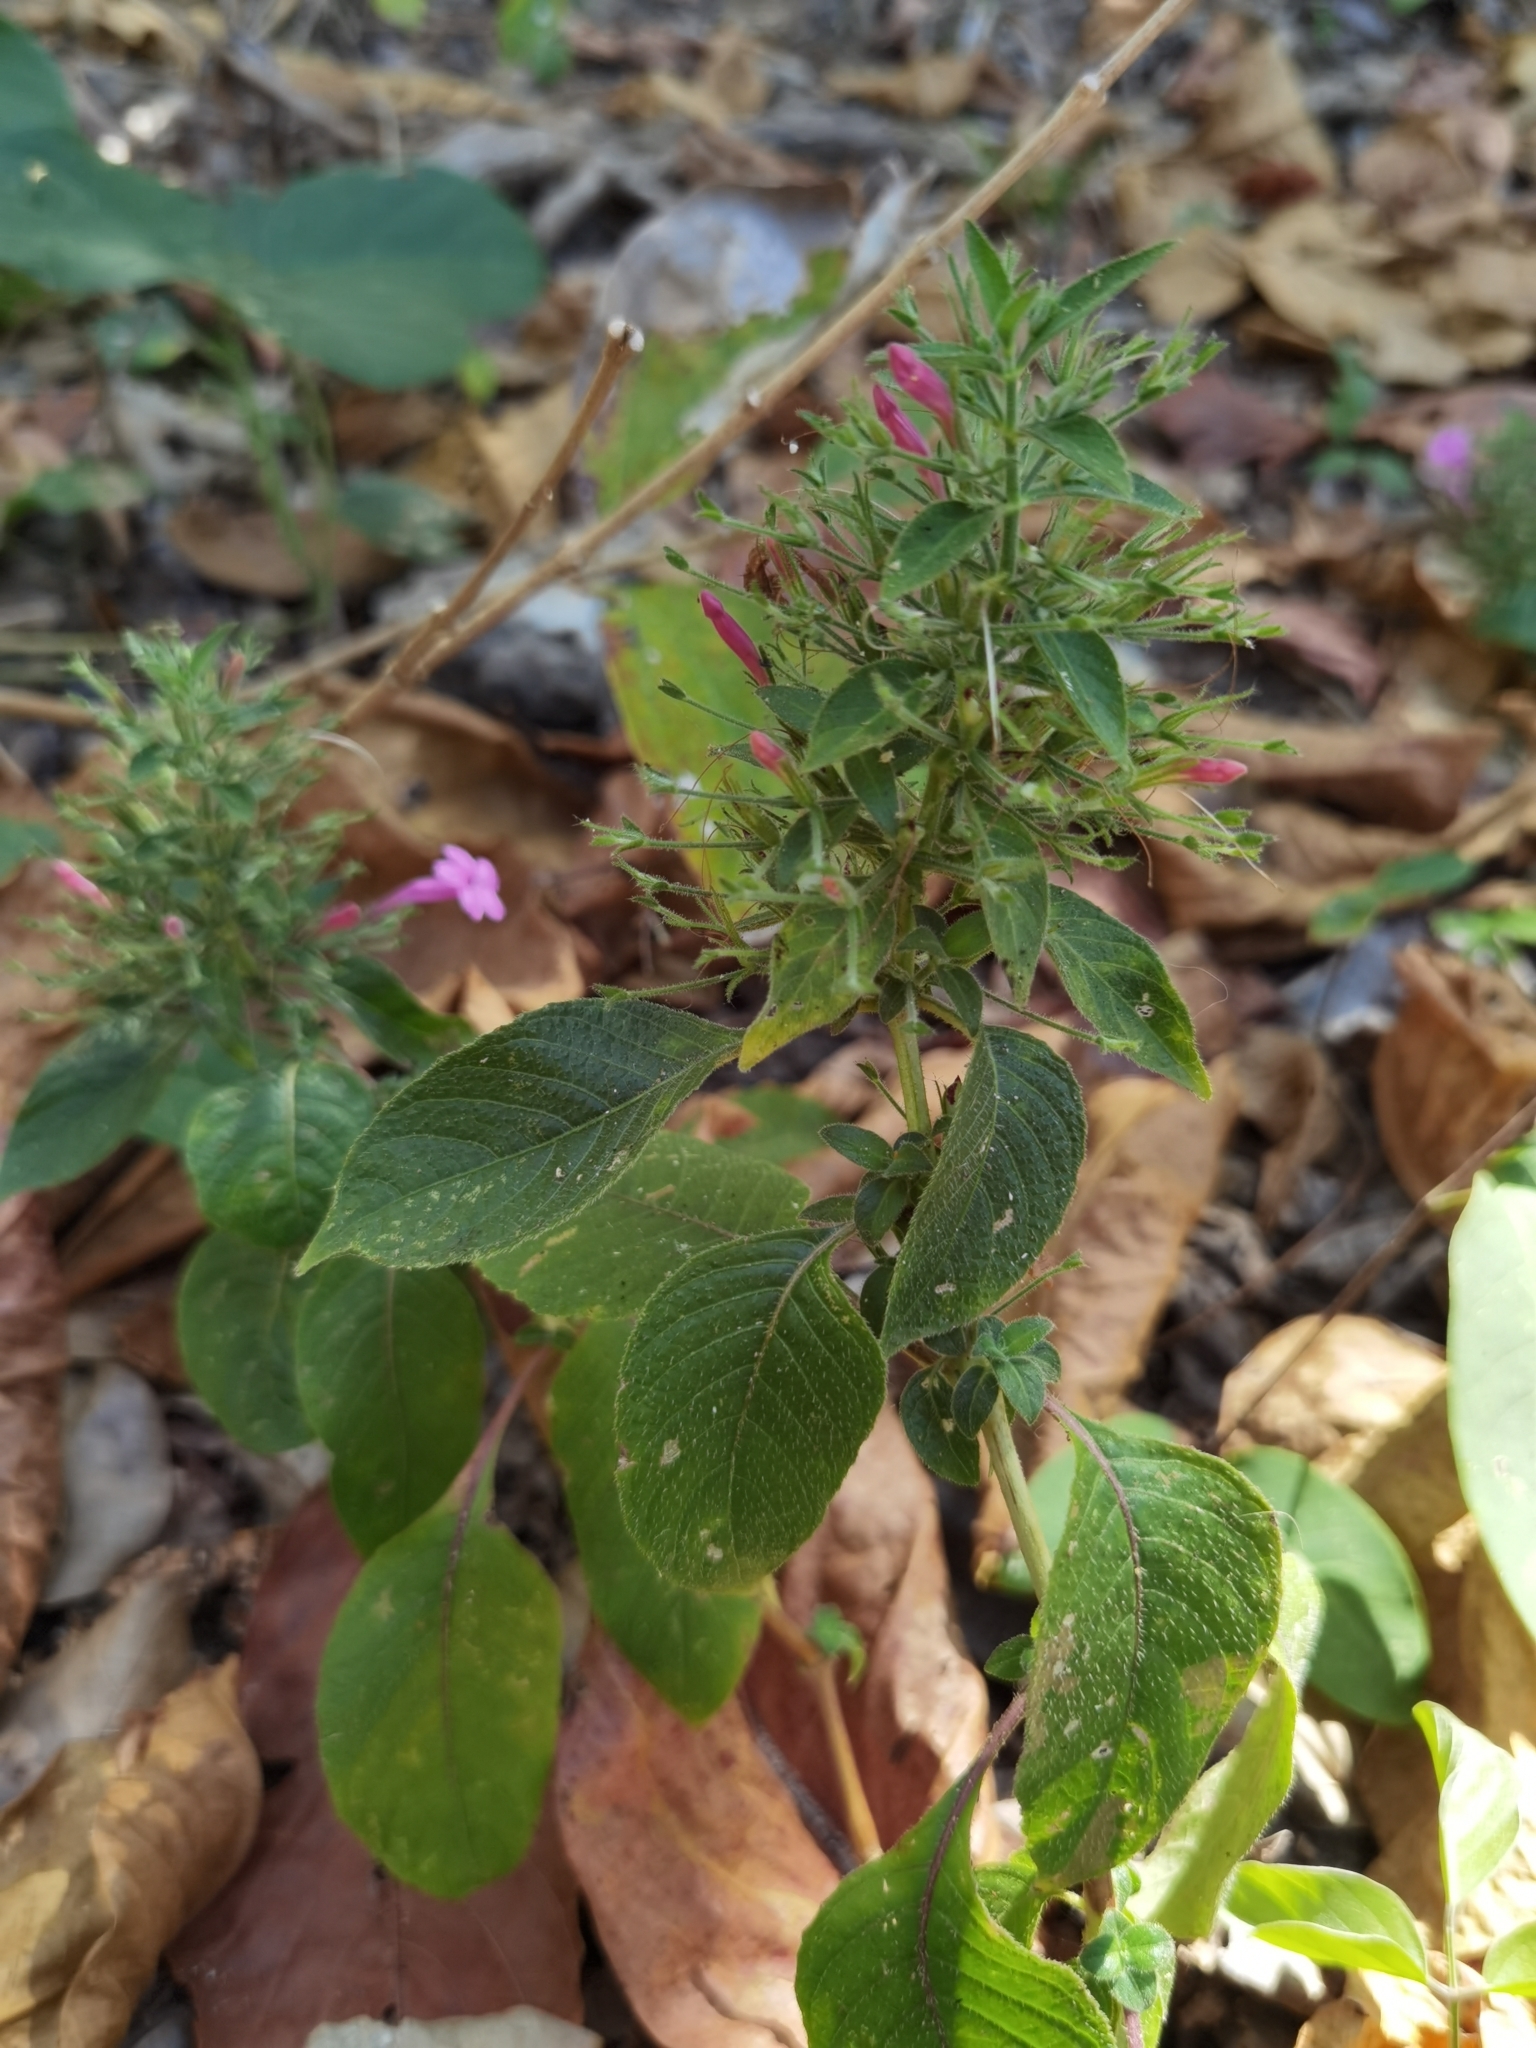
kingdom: Plantae
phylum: Tracheophyta
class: Magnoliopsida
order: Lamiales
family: Acanthaceae
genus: Ruellia
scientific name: Ruellia inundata
